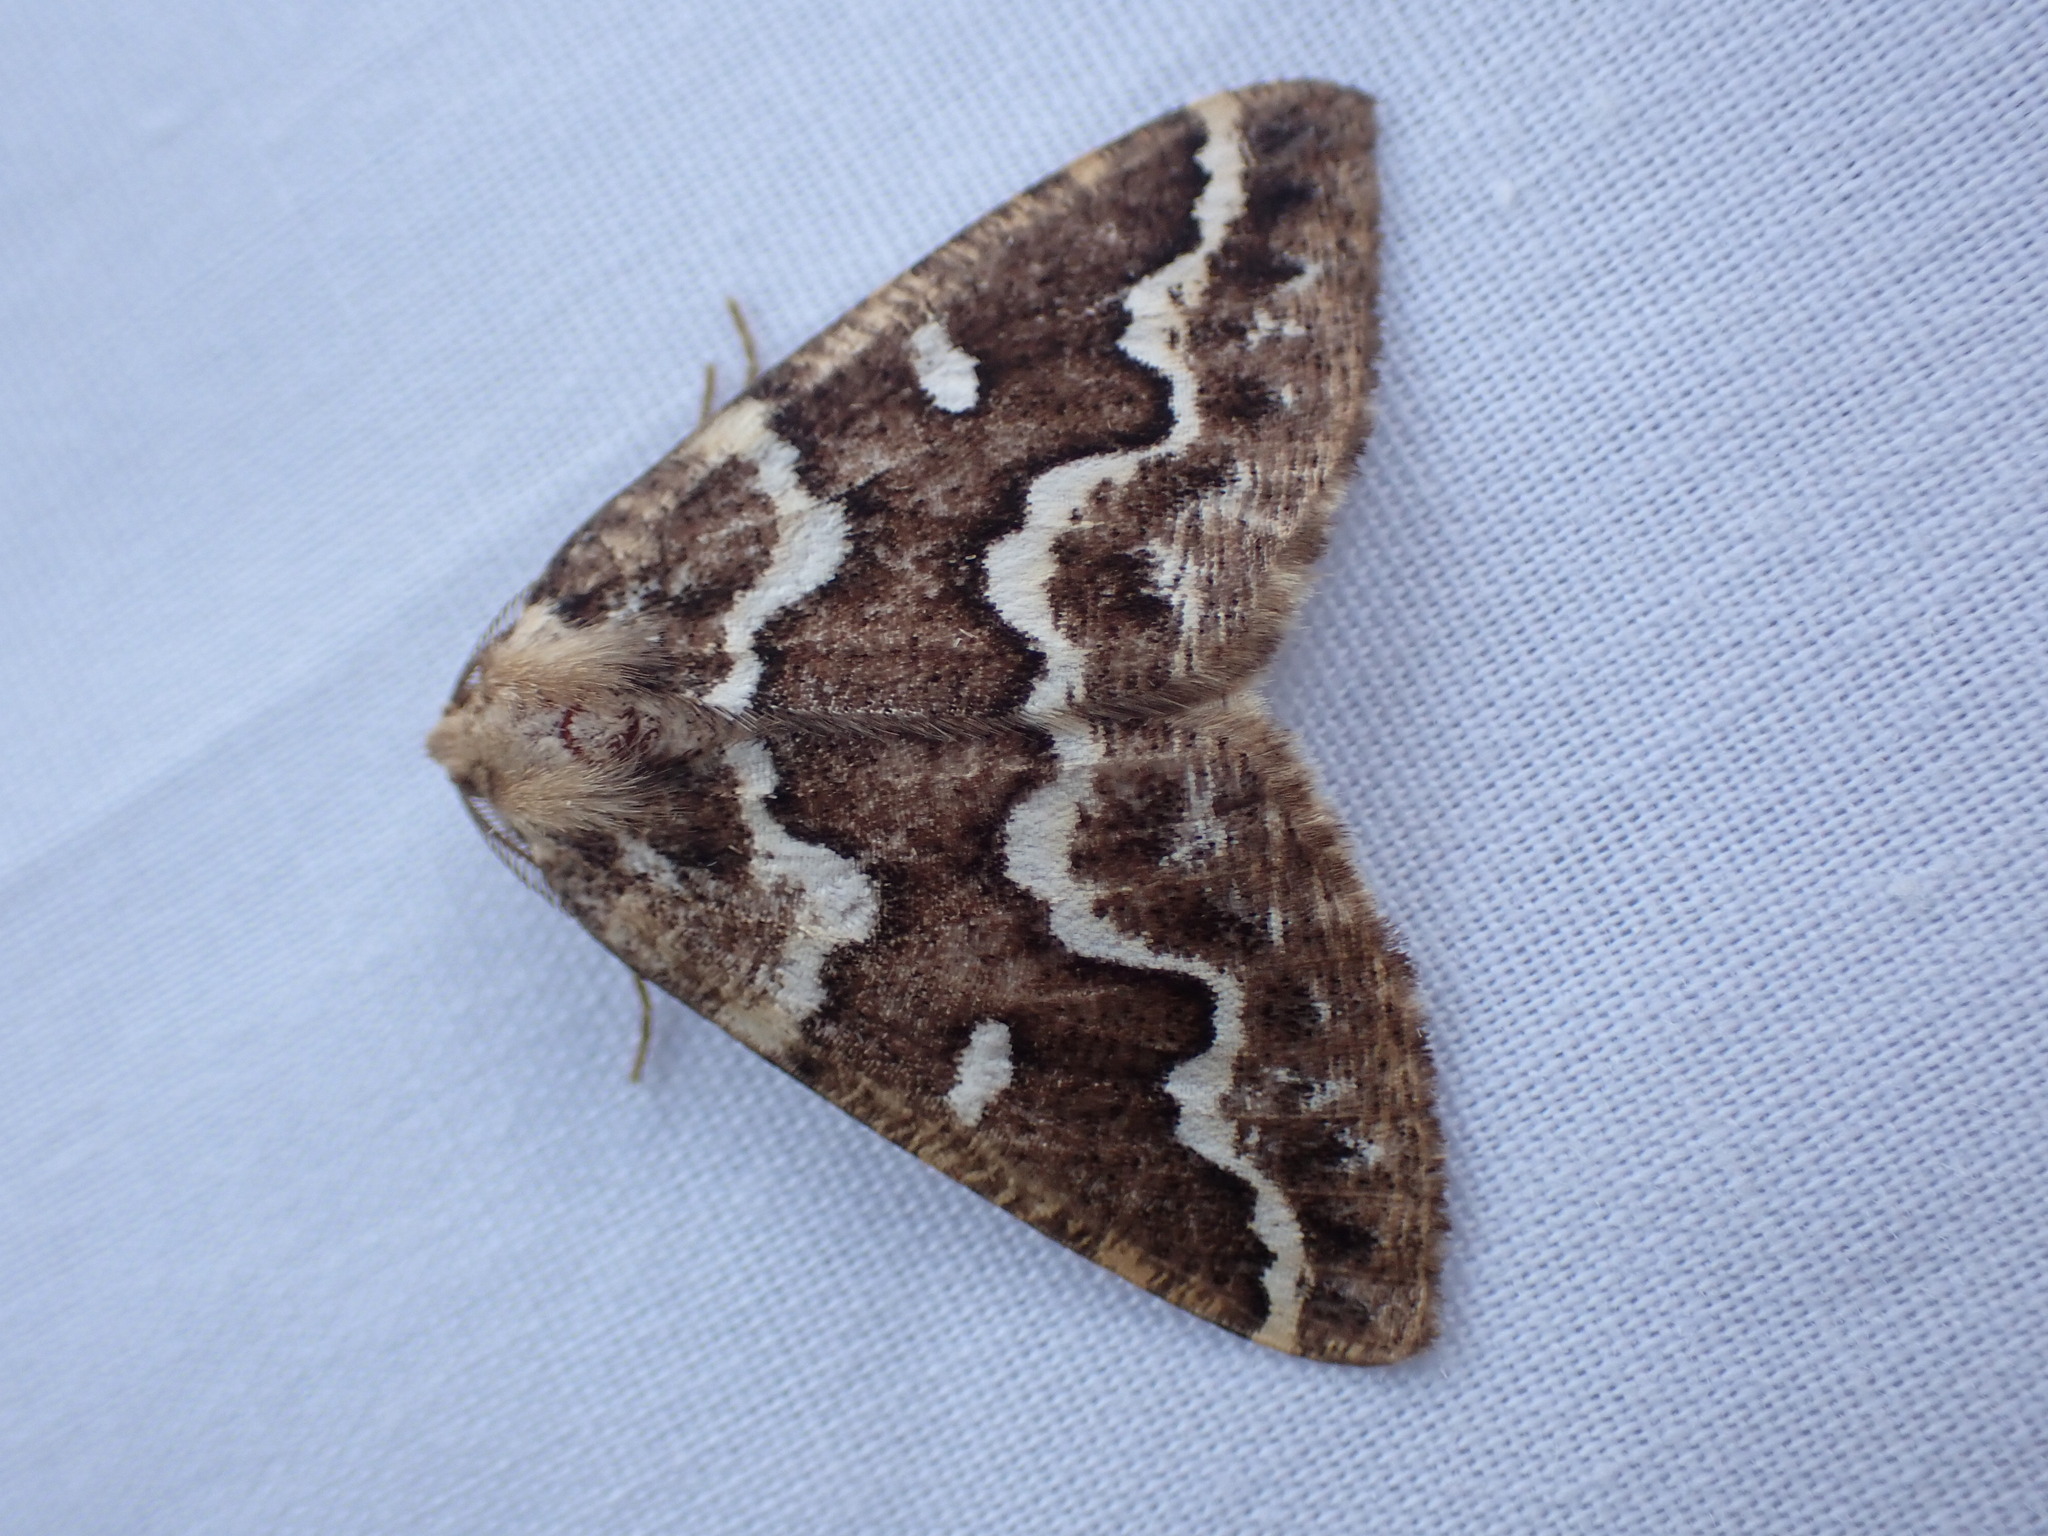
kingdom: Animalia
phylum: Arthropoda
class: Insecta
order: Lepidoptera
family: Geometridae
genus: Caripeta
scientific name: Caripeta divisata
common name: Gray spruce looper
